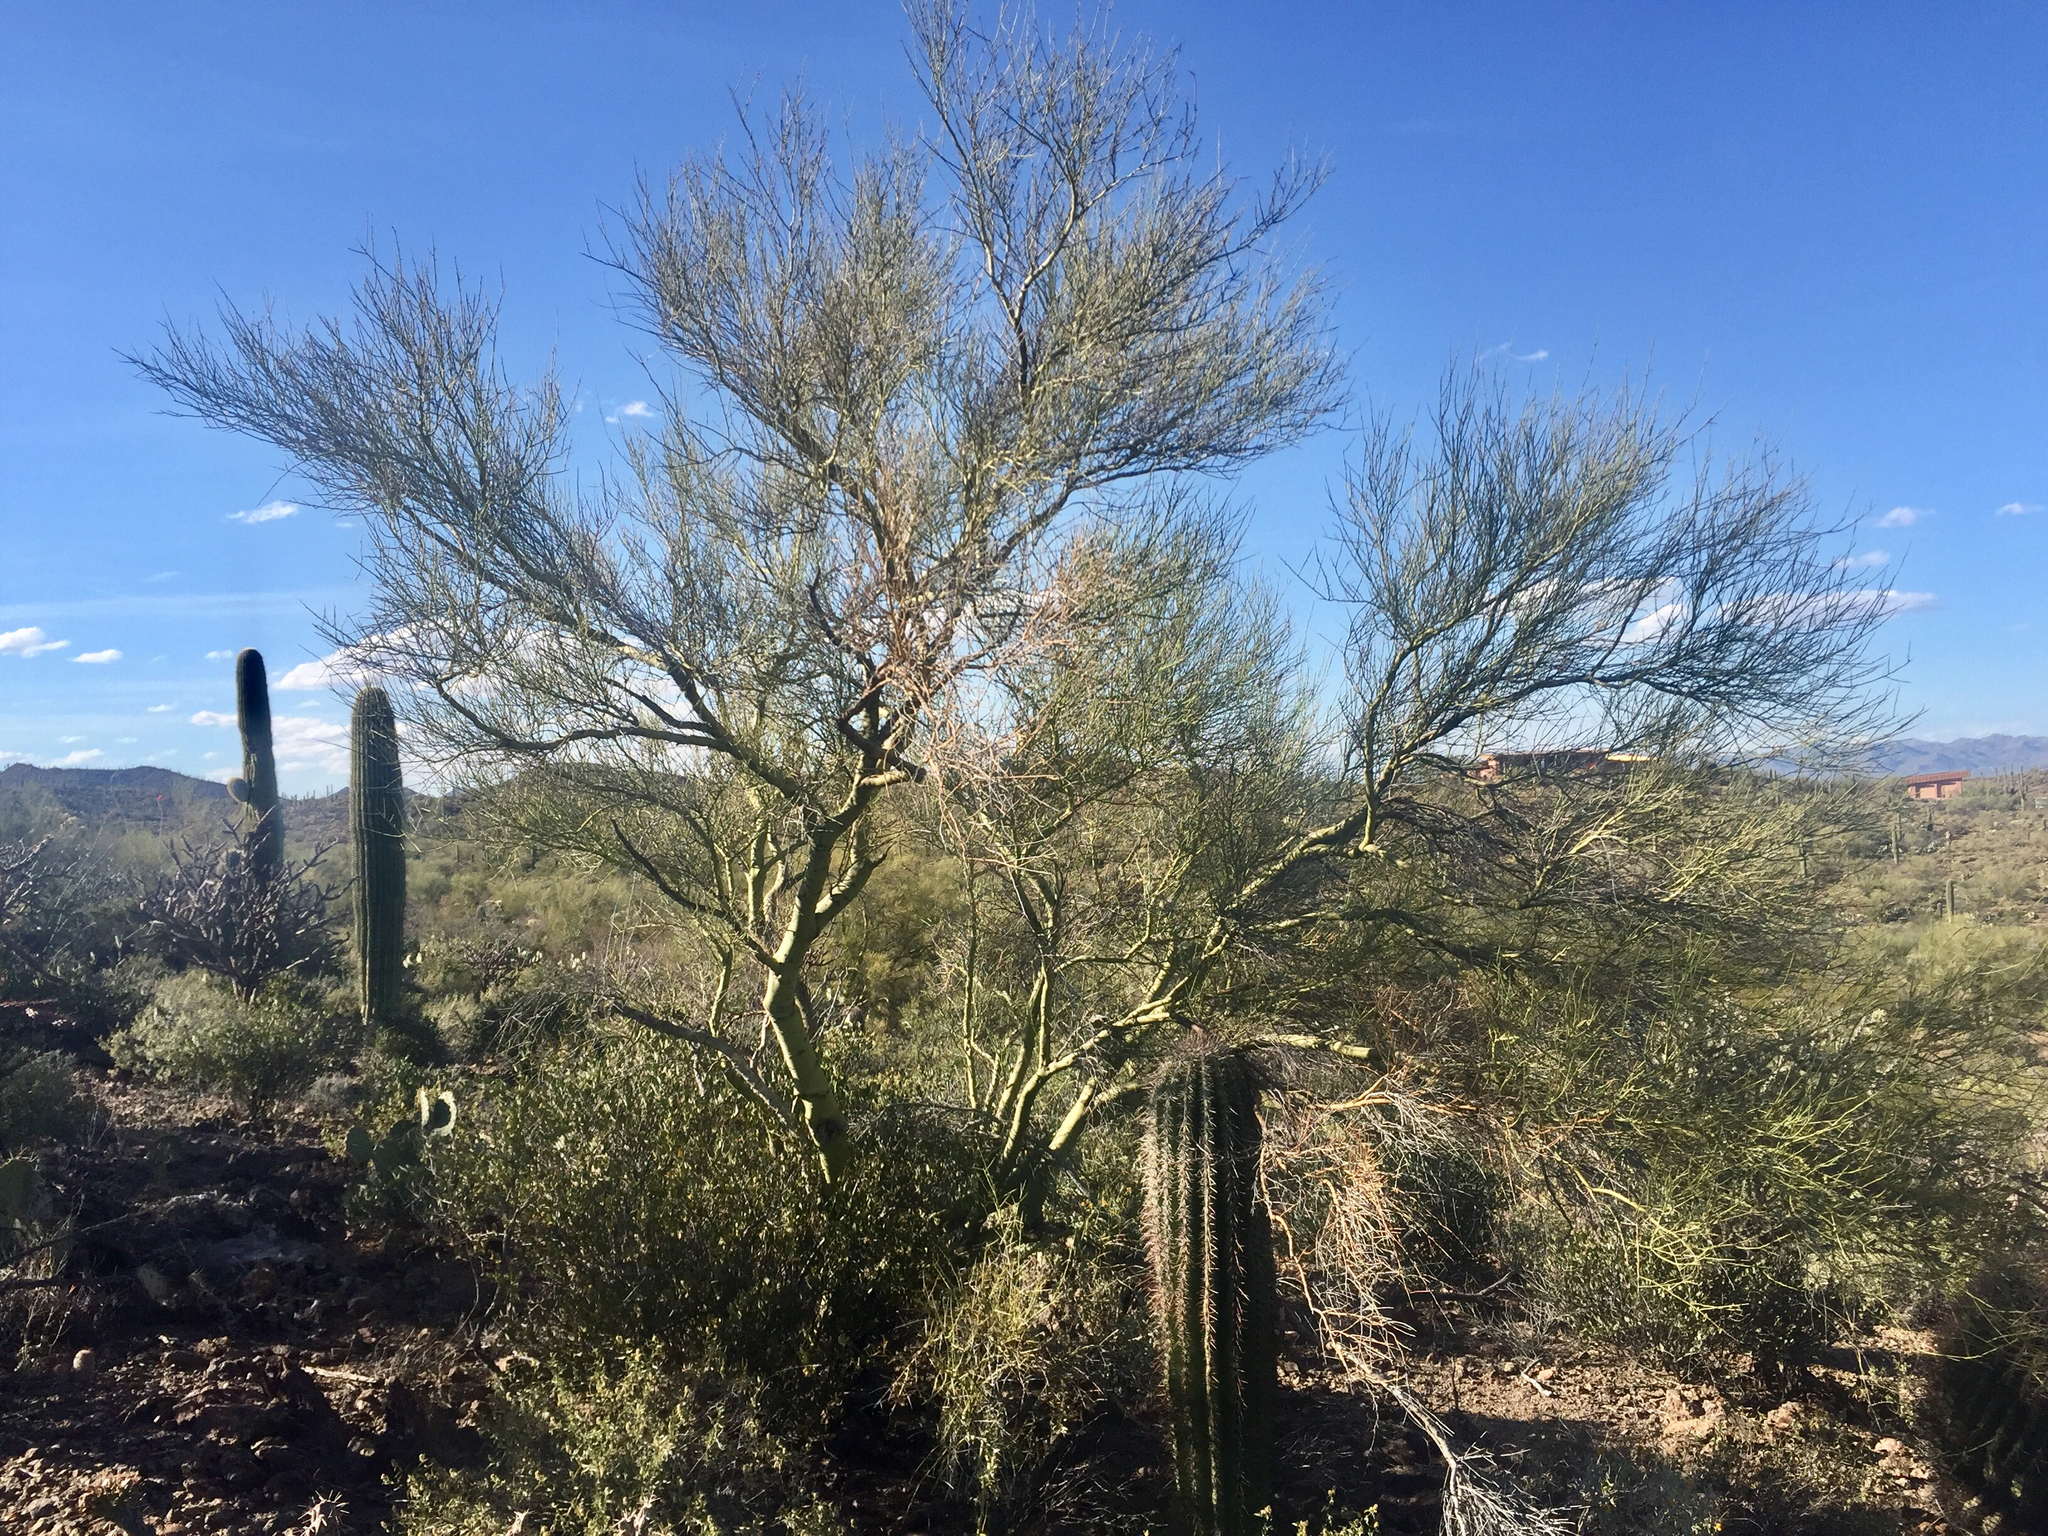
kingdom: Plantae
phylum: Tracheophyta
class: Magnoliopsida
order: Fabales
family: Fabaceae
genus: Parkinsonia
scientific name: Parkinsonia microphylla
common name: Yellow paloverde
